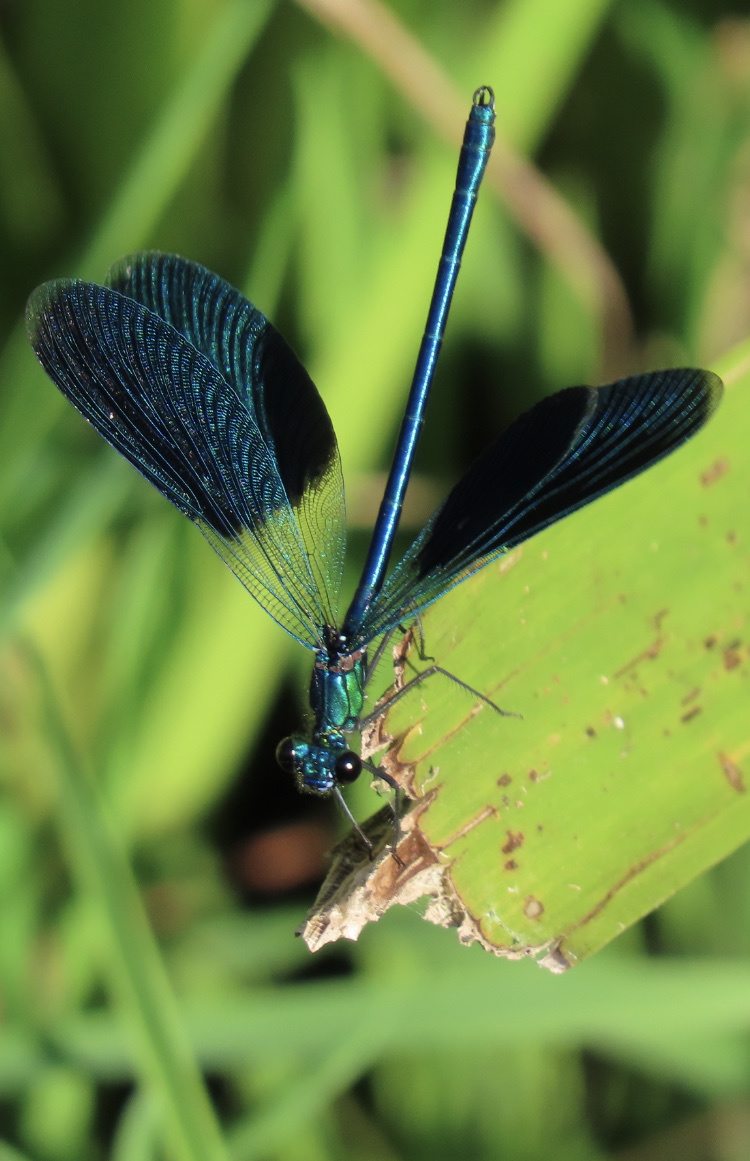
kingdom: Animalia
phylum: Arthropoda
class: Insecta
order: Odonata
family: Calopterygidae
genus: Calopteryx
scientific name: Calopteryx splendens
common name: Banded demoiselle
